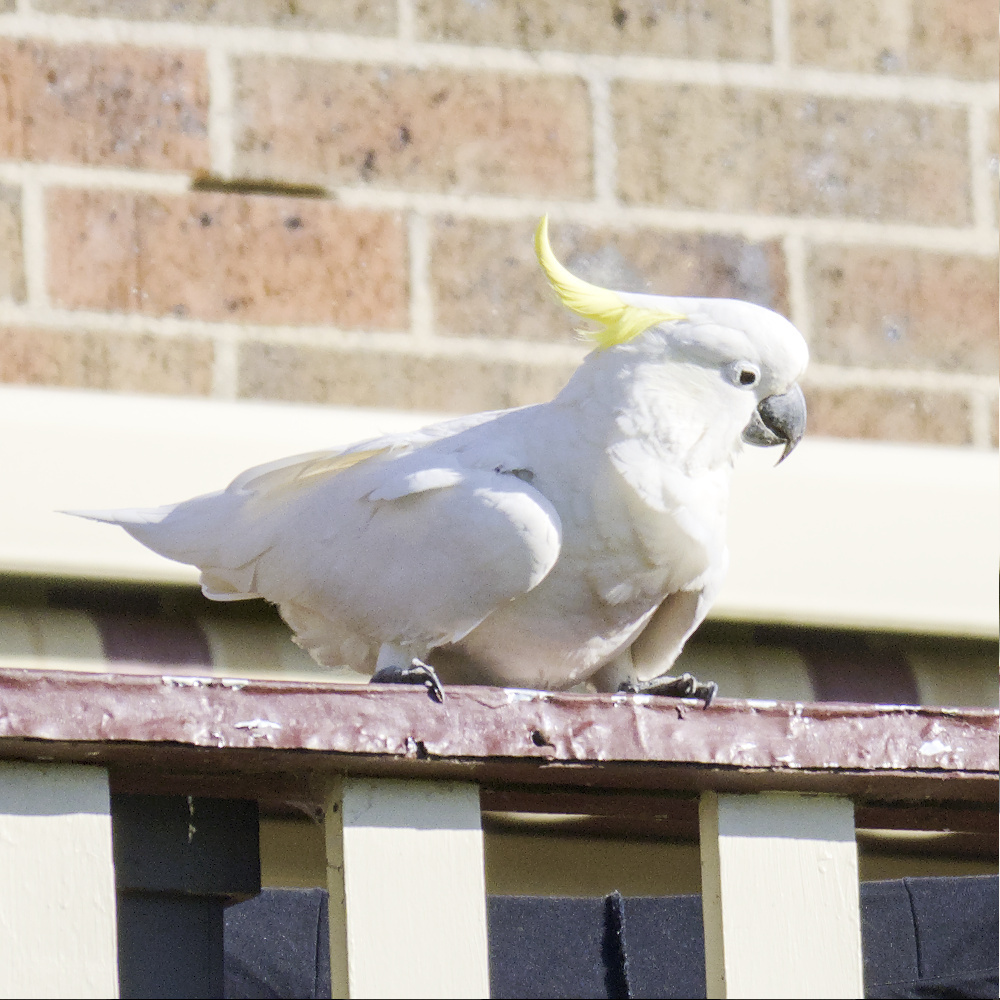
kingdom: Animalia
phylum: Chordata
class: Aves
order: Psittaciformes
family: Psittacidae
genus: Cacatua
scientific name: Cacatua galerita
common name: Sulphur-crested cockatoo
